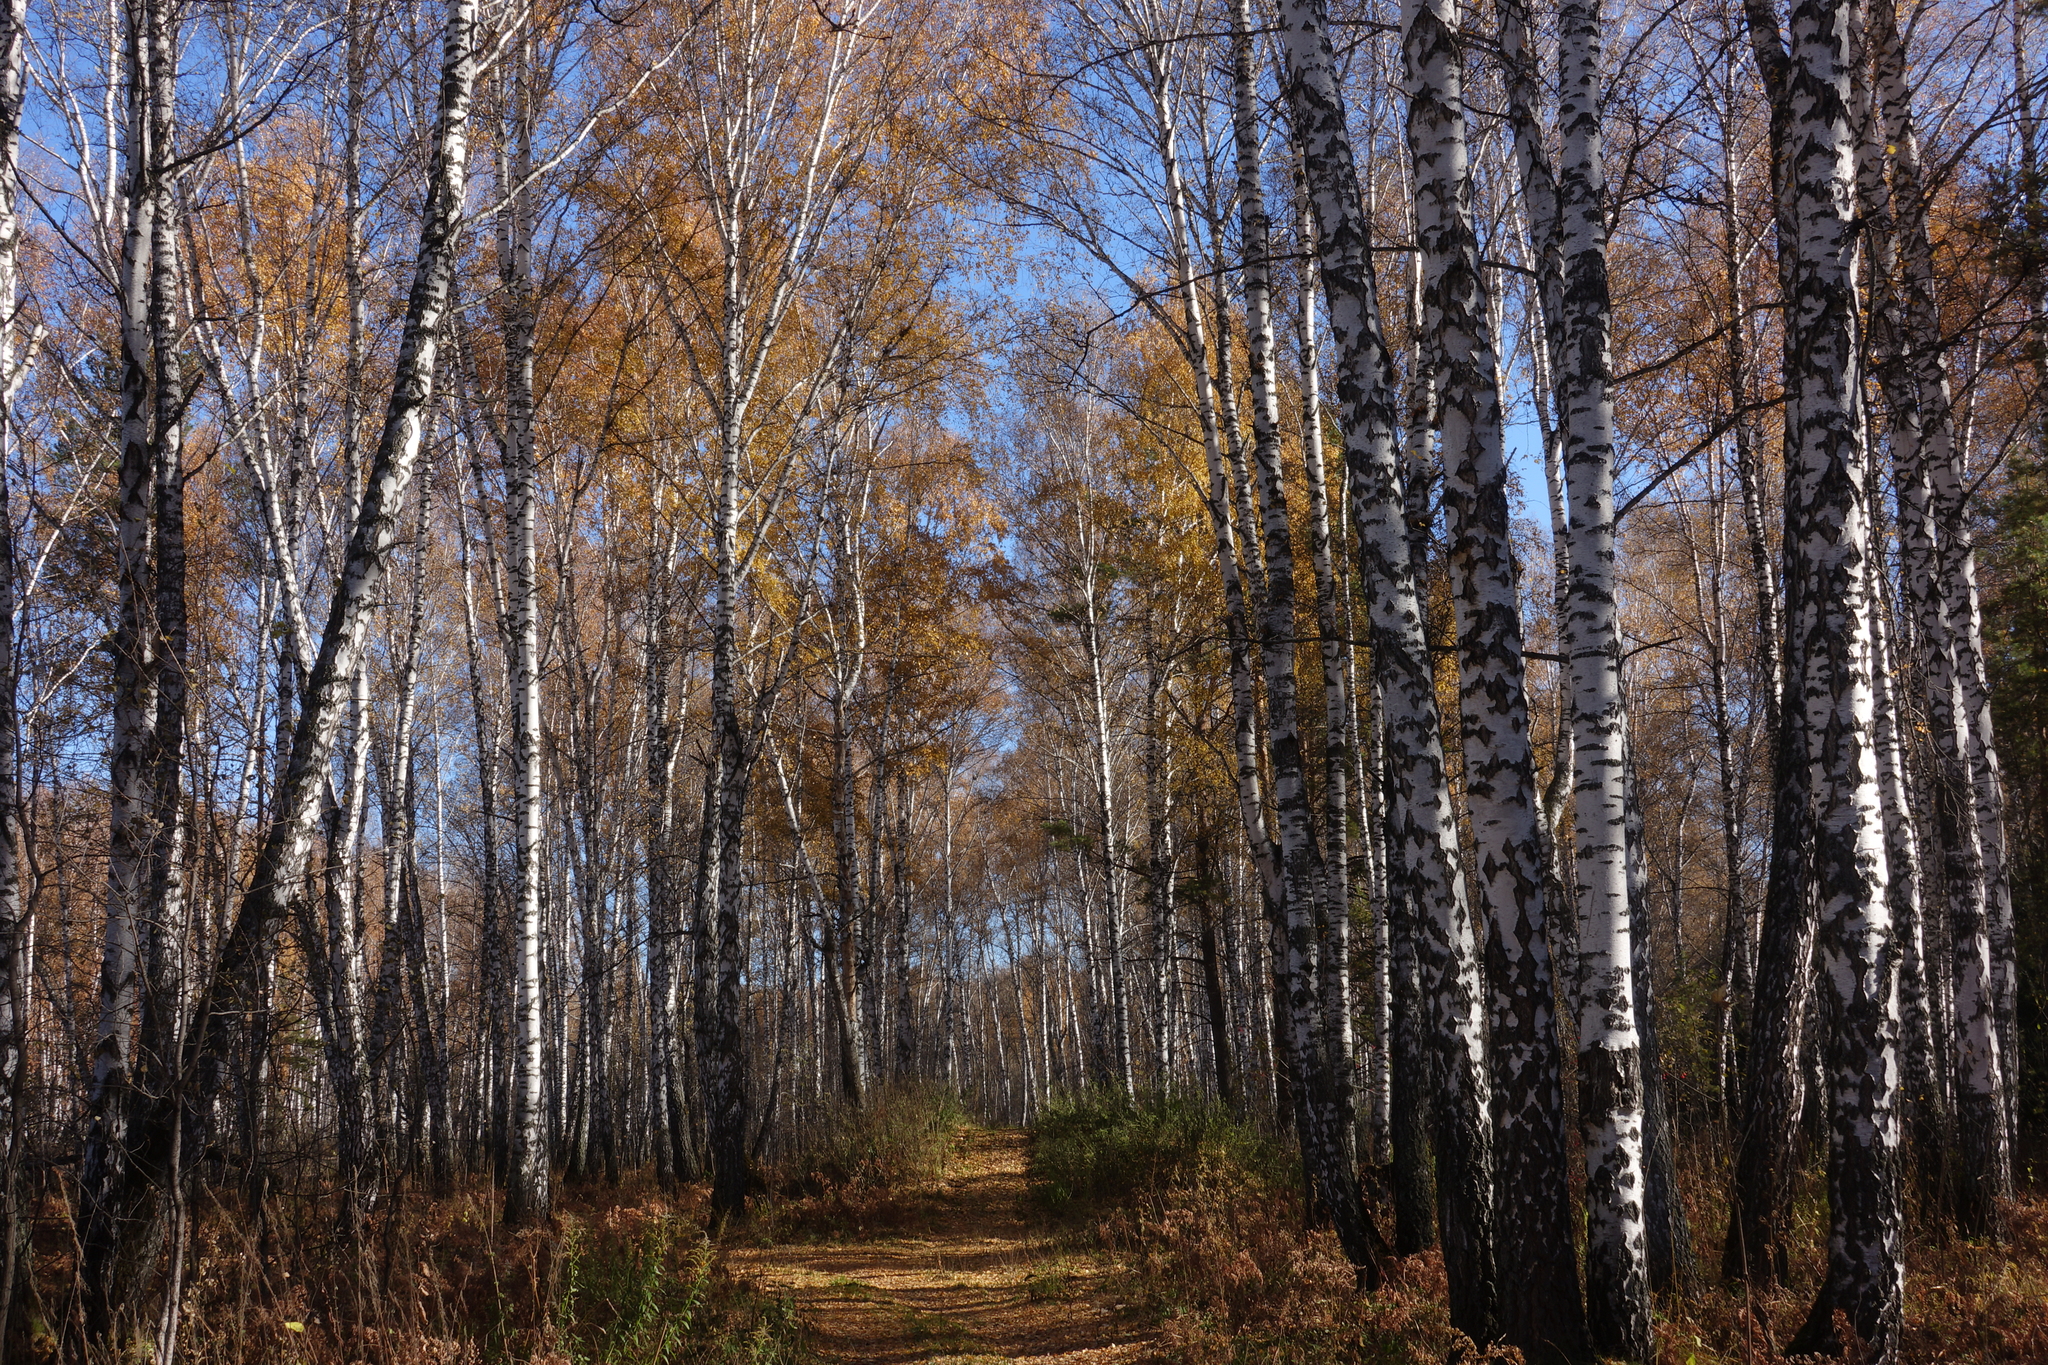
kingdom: Plantae
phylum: Tracheophyta
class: Magnoliopsida
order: Fagales
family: Betulaceae
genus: Betula
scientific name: Betula pendula
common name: Silver birch
